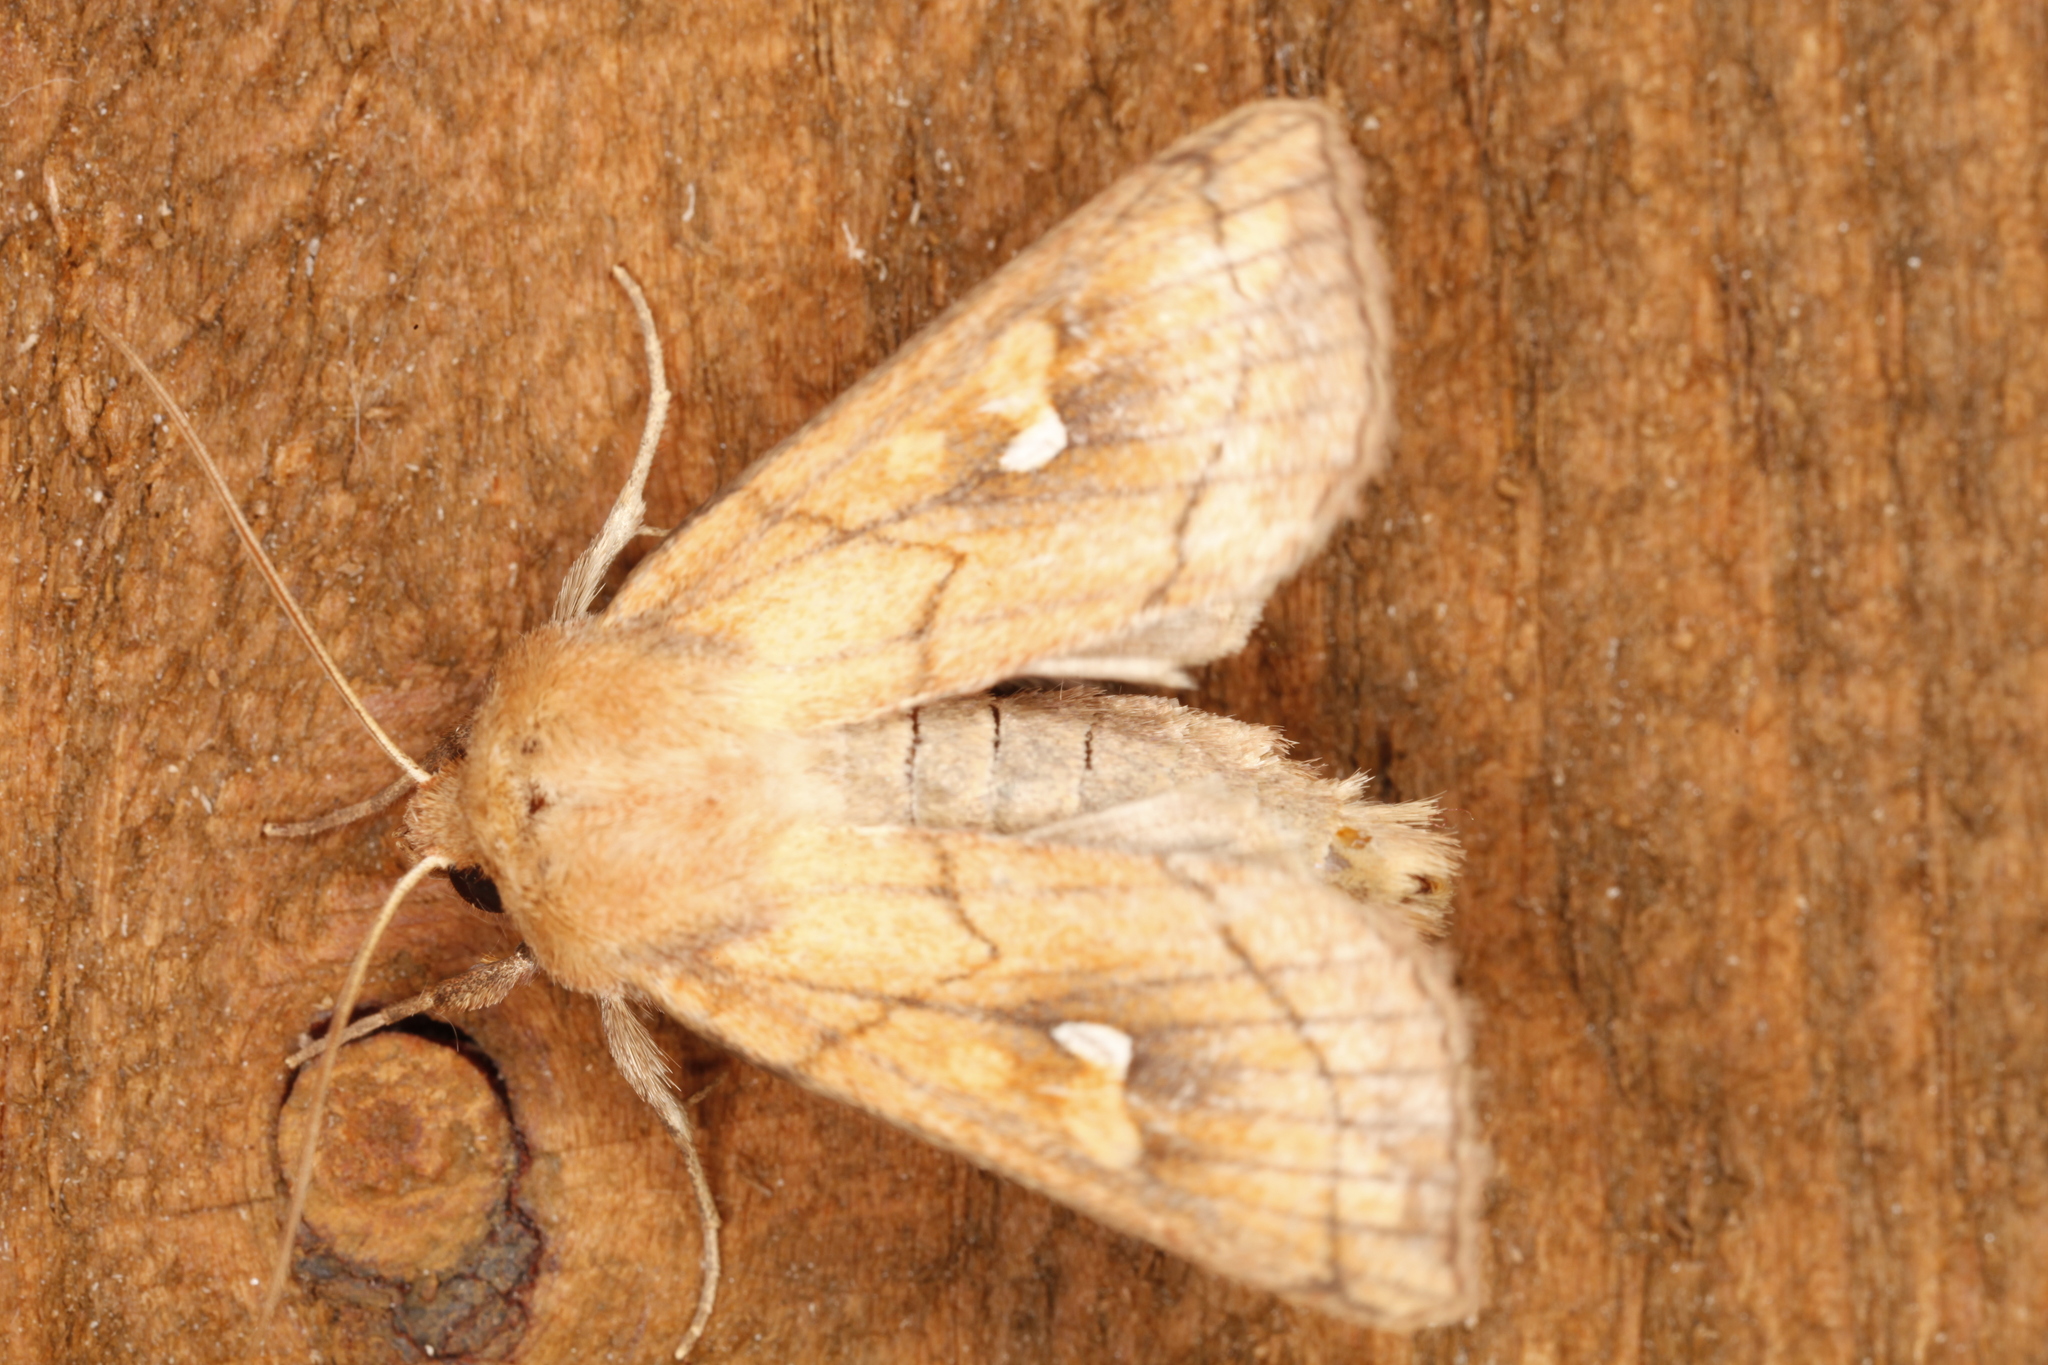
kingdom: Animalia
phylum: Arthropoda
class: Insecta
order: Lepidoptera
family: Noctuidae
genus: Mythimna
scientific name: Mythimna conigera
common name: Brown-line bright-eye
